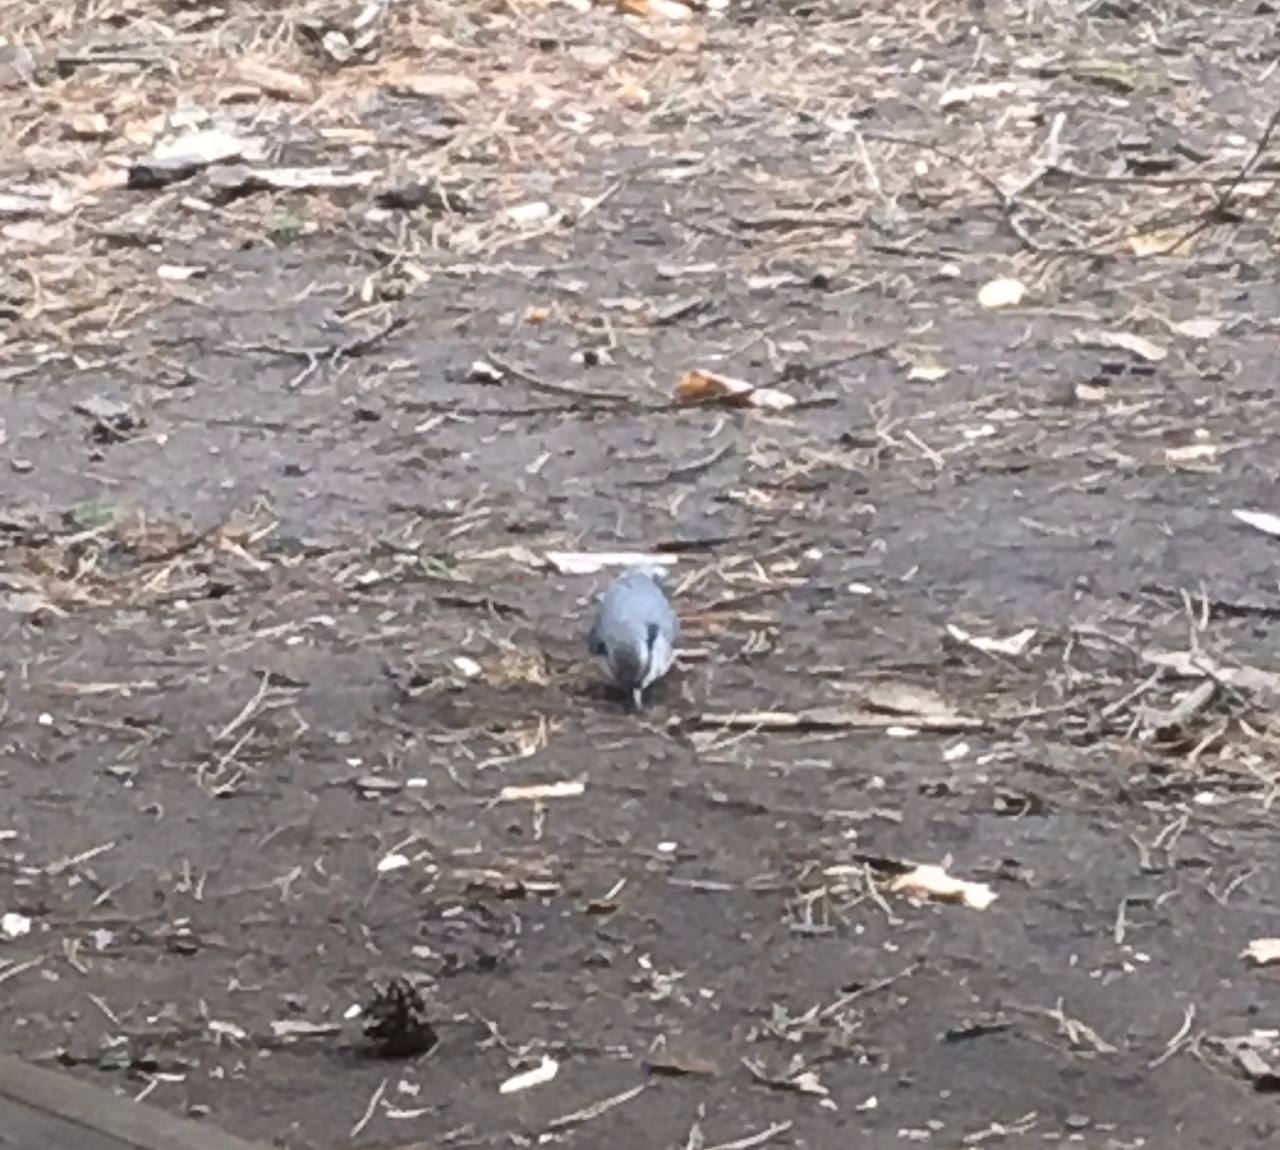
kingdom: Animalia
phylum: Chordata
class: Aves
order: Passeriformes
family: Sittidae
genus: Sitta
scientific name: Sitta europaea
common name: Eurasian nuthatch
